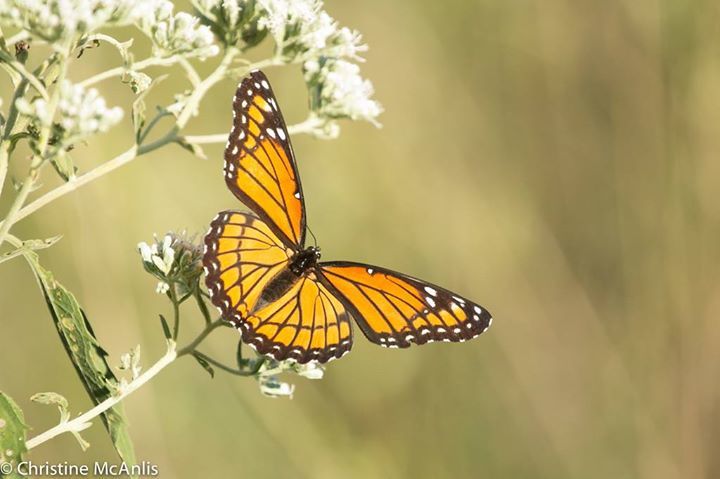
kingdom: Animalia
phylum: Arthropoda
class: Insecta
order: Lepidoptera
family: Nymphalidae
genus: Limenitis
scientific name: Limenitis archippus
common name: Viceroy
